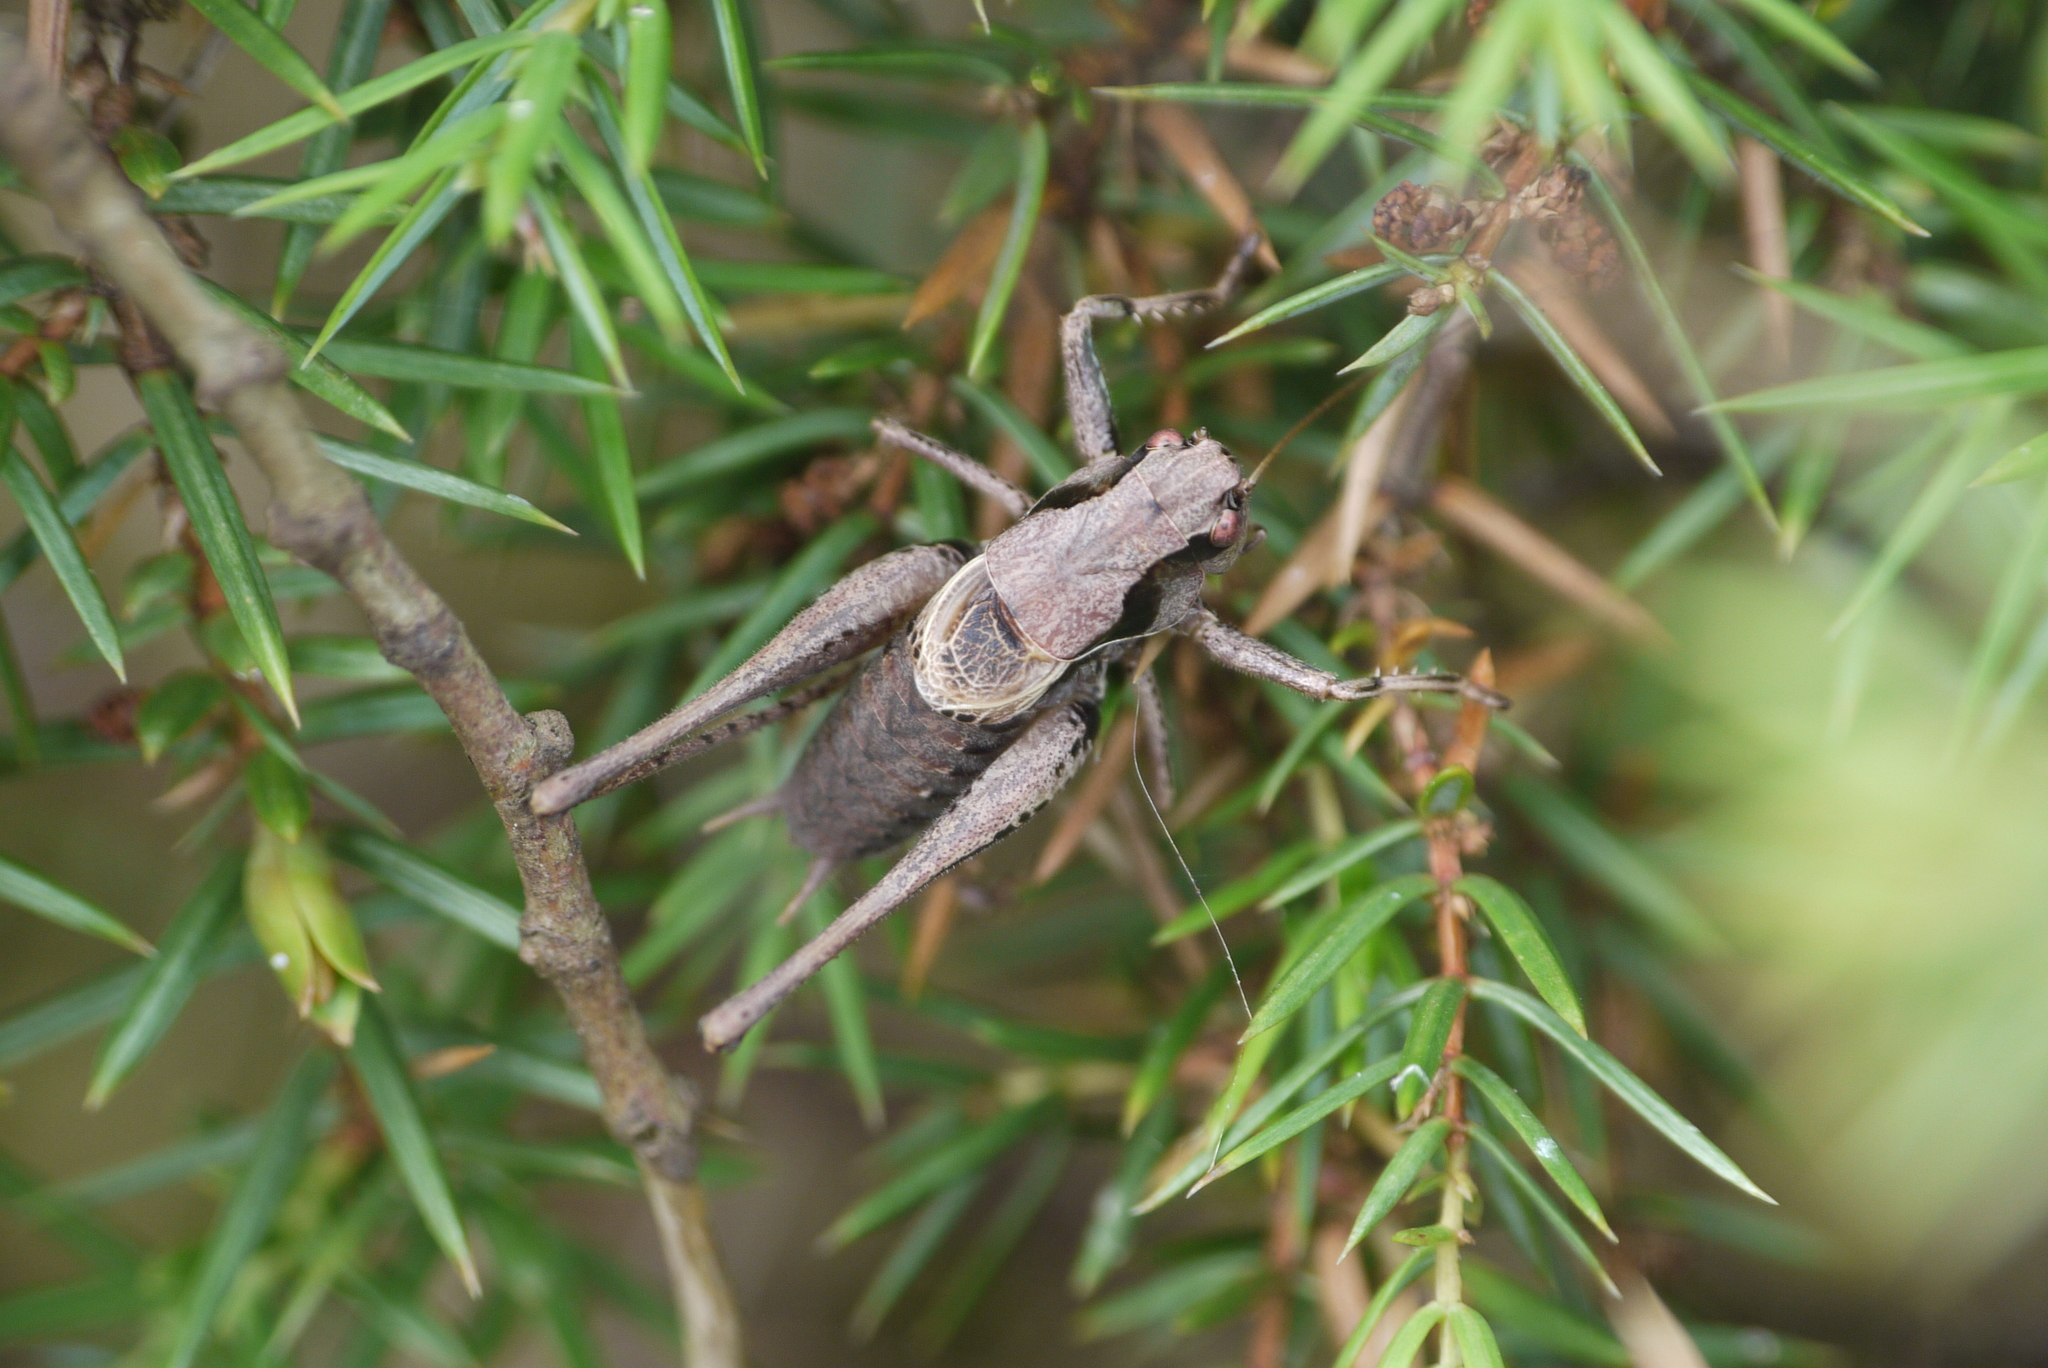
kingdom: Animalia
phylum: Arthropoda
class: Insecta
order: Orthoptera
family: Tettigoniidae
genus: Pholidoptera
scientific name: Pholidoptera griseoaptera
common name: Dark bush-cricket
